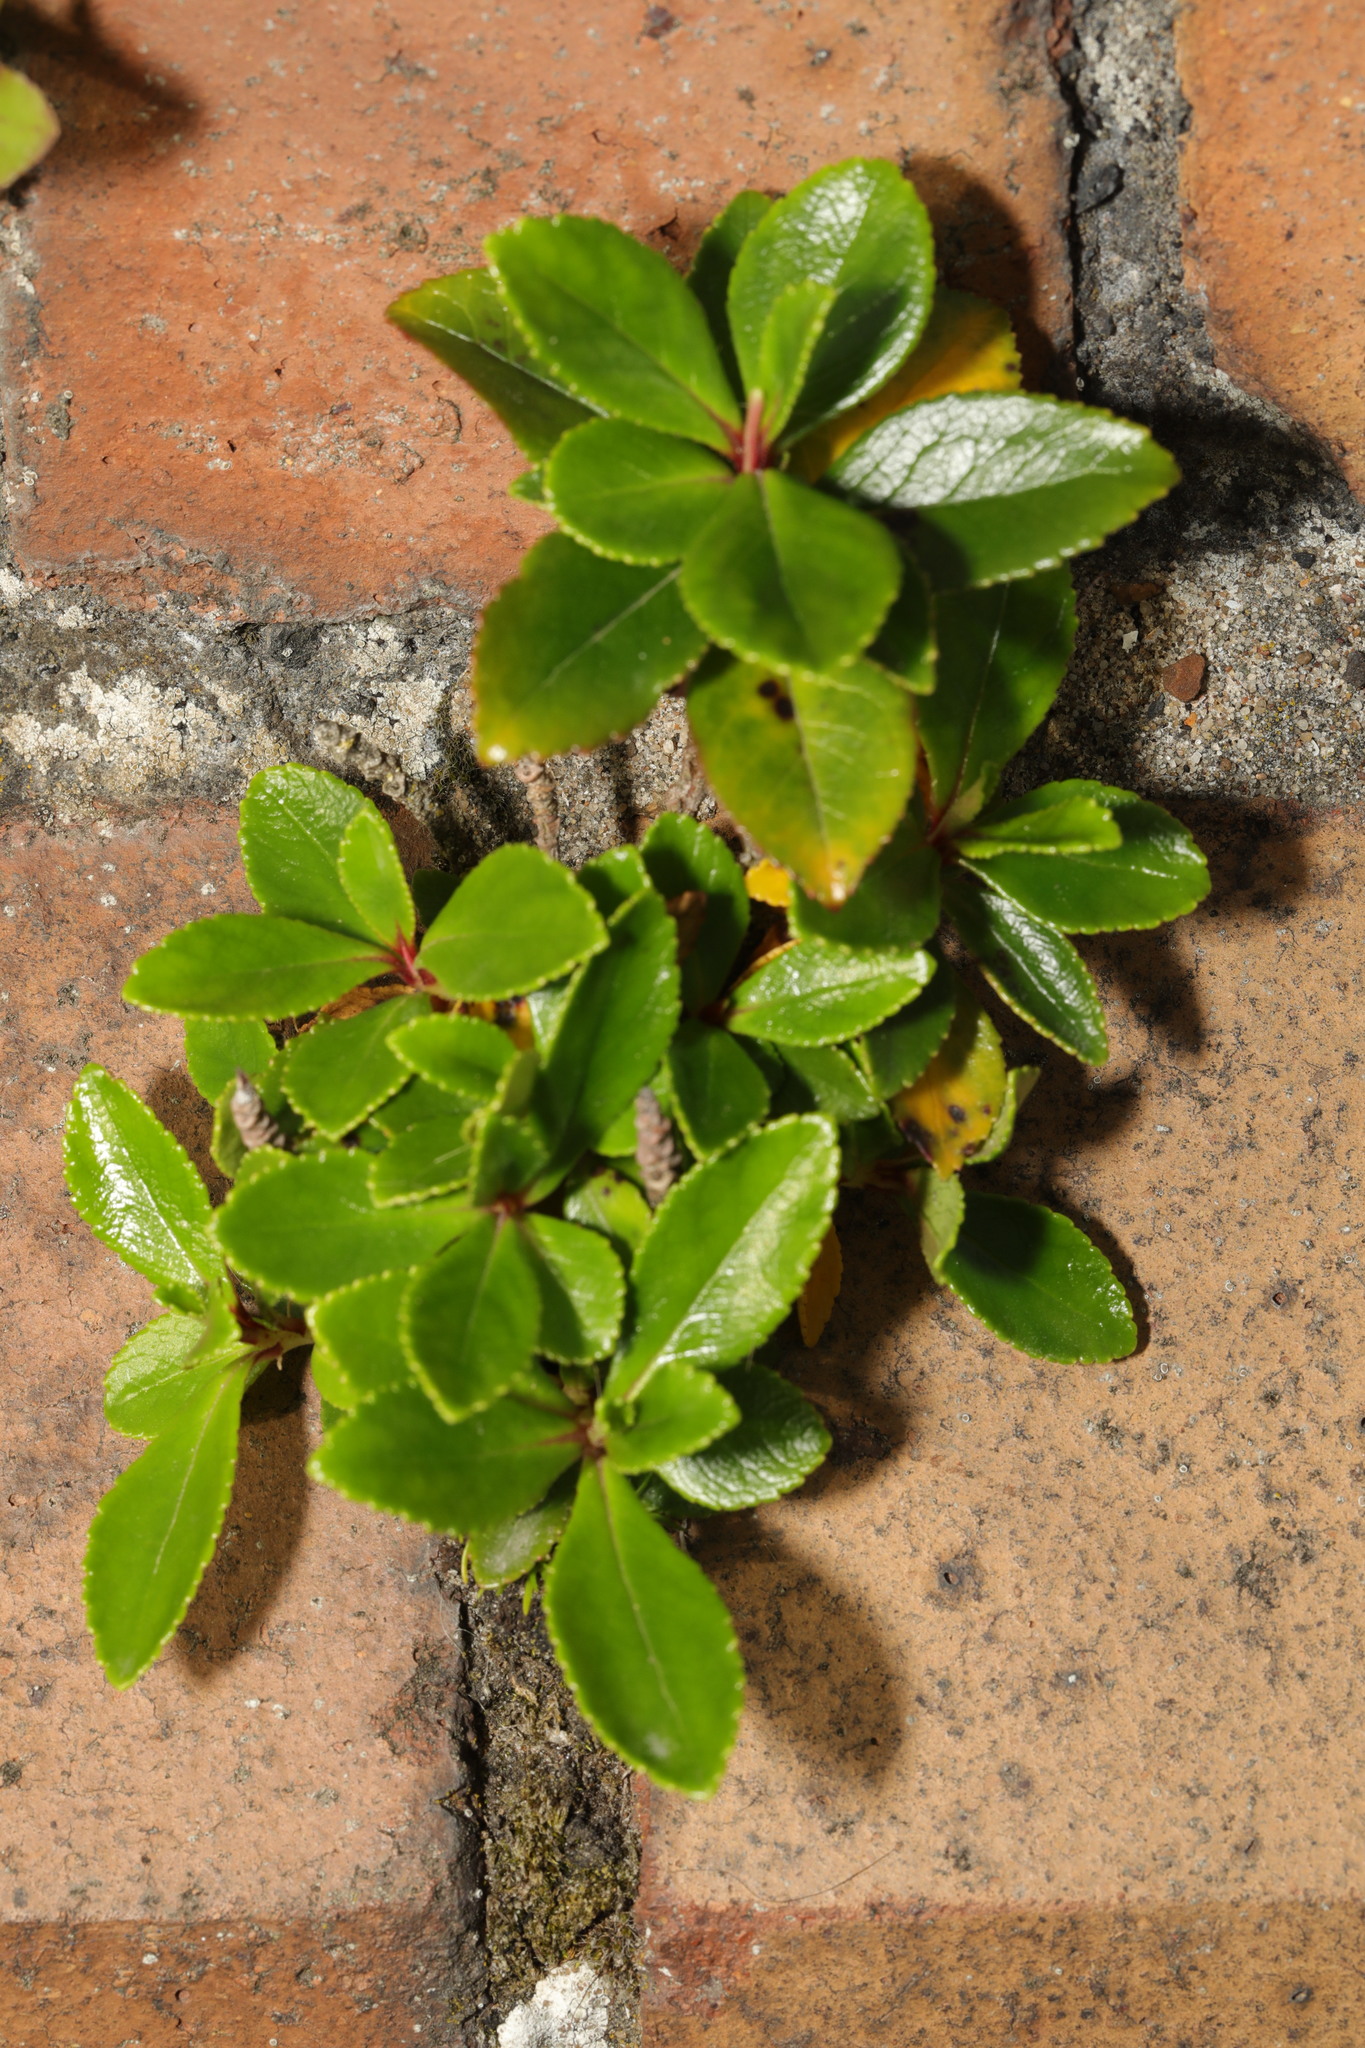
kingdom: Plantae
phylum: Tracheophyta
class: Magnoliopsida
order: Escalloniales
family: Escalloniaceae
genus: Escallonia
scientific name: Escallonia rubra
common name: Redclaws
